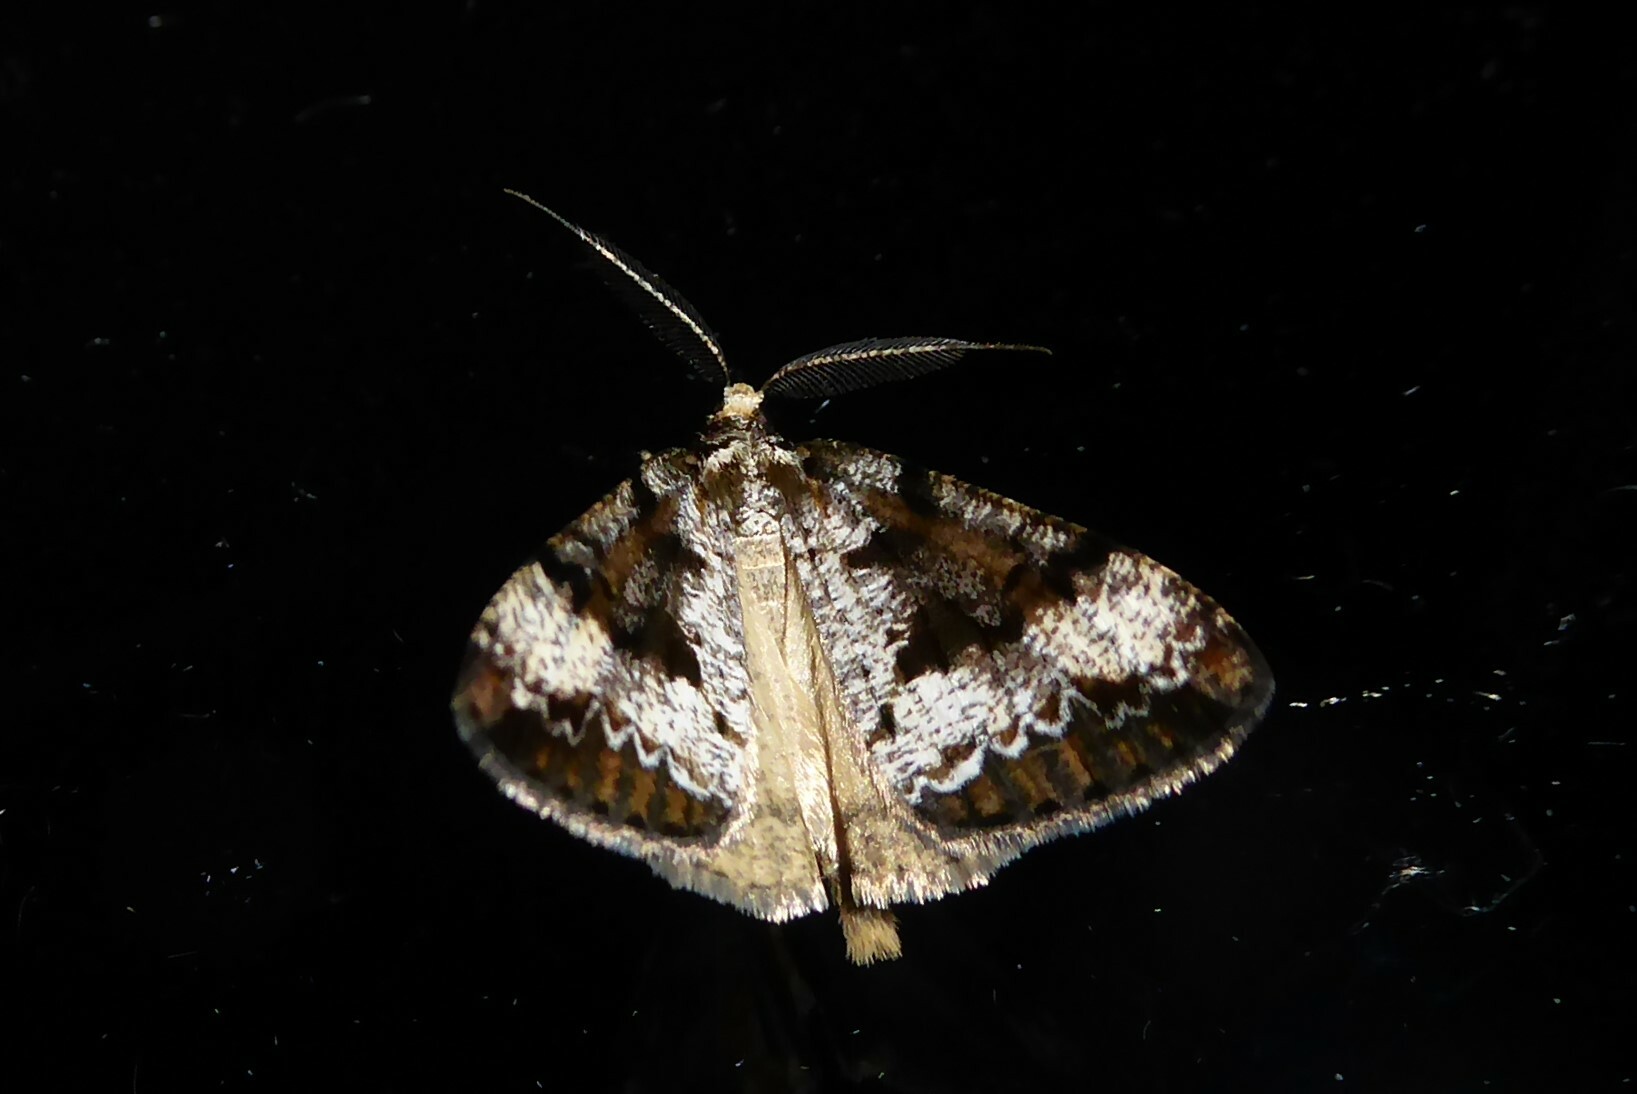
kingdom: Animalia
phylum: Arthropoda
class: Insecta
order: Lepidoptera
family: Geometridae
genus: Pseudocoremia
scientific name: Pseudocoremia leucelaea
